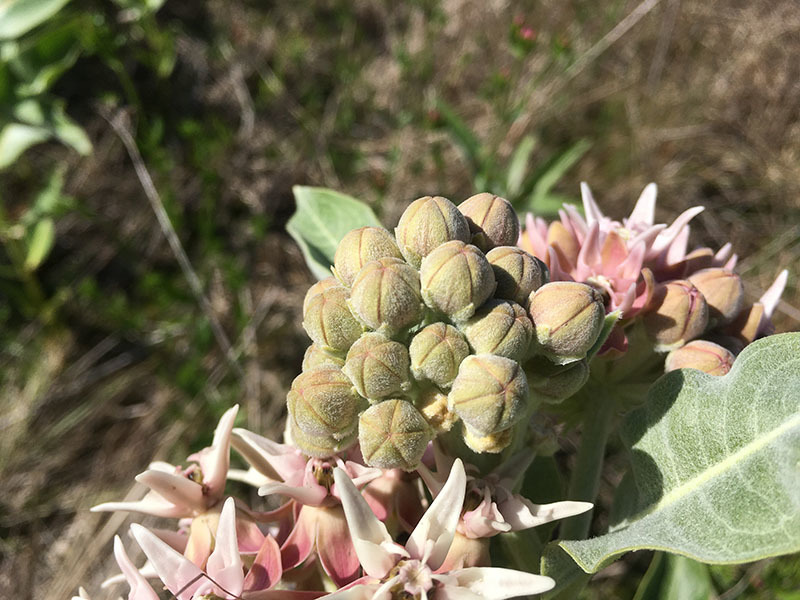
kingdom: Plantae
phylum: Tracheophyta
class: Magnoliopsida
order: Gentianales
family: Apocynaceae
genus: Asclepias
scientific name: Asclepias speciosa
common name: Showy milkweed
